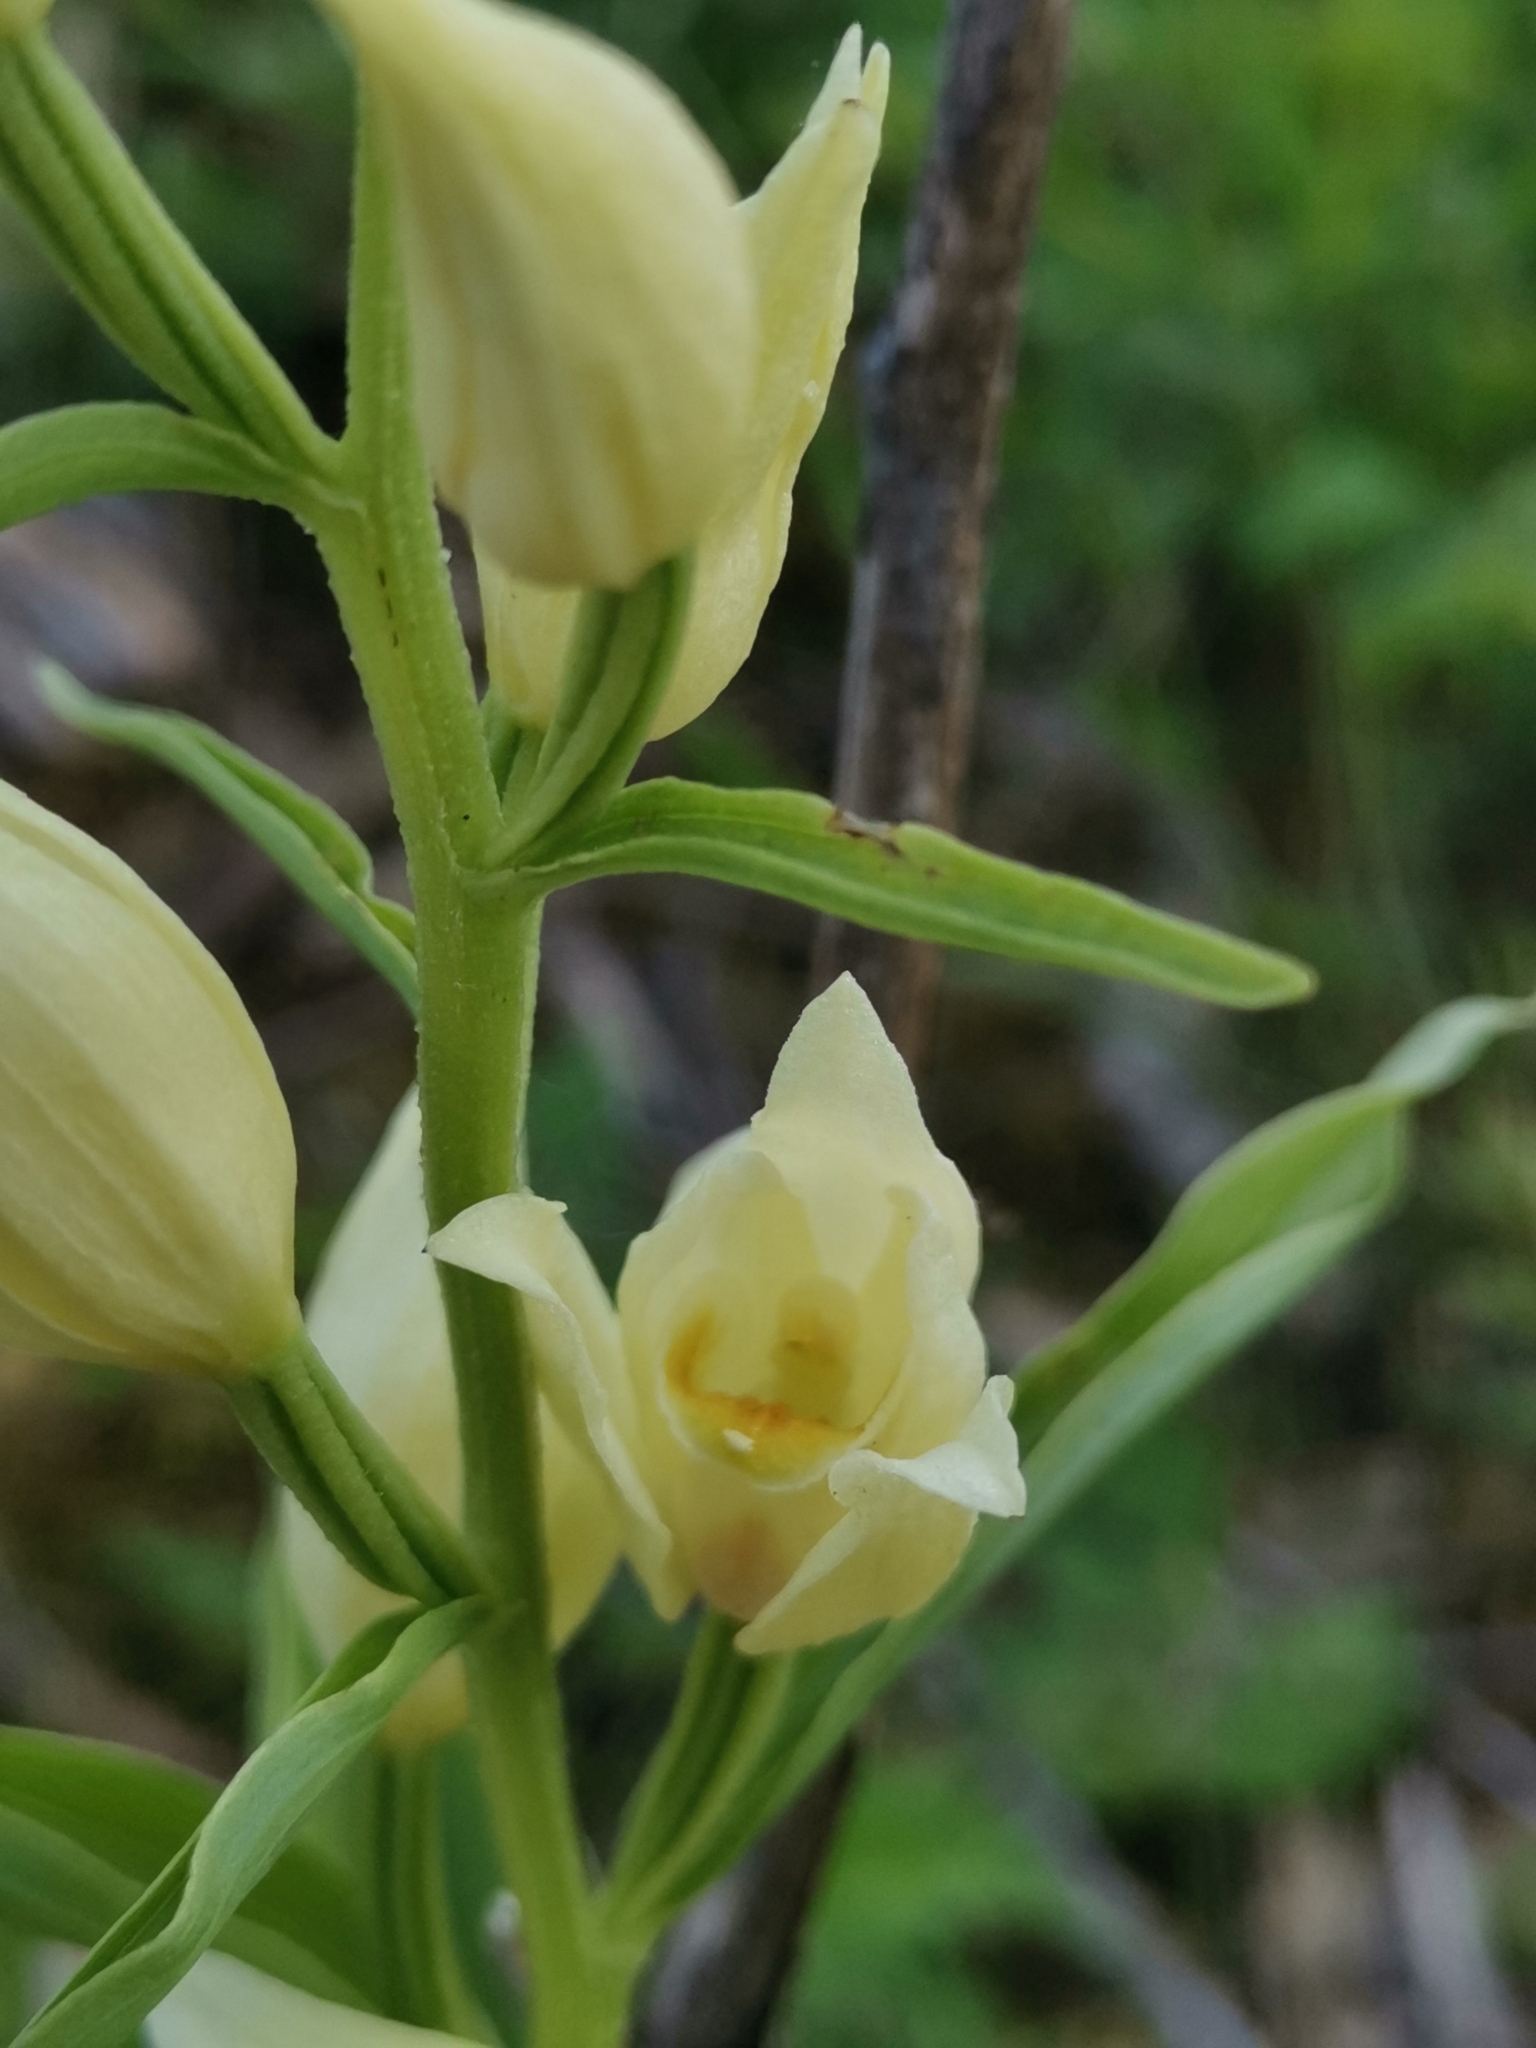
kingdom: Plantae
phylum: Tracheophyta
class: Liliopsida
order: Asparagales
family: Orchidaceae
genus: Cephalanthera
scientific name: Cephalanthera damasonium
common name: White helleborine
